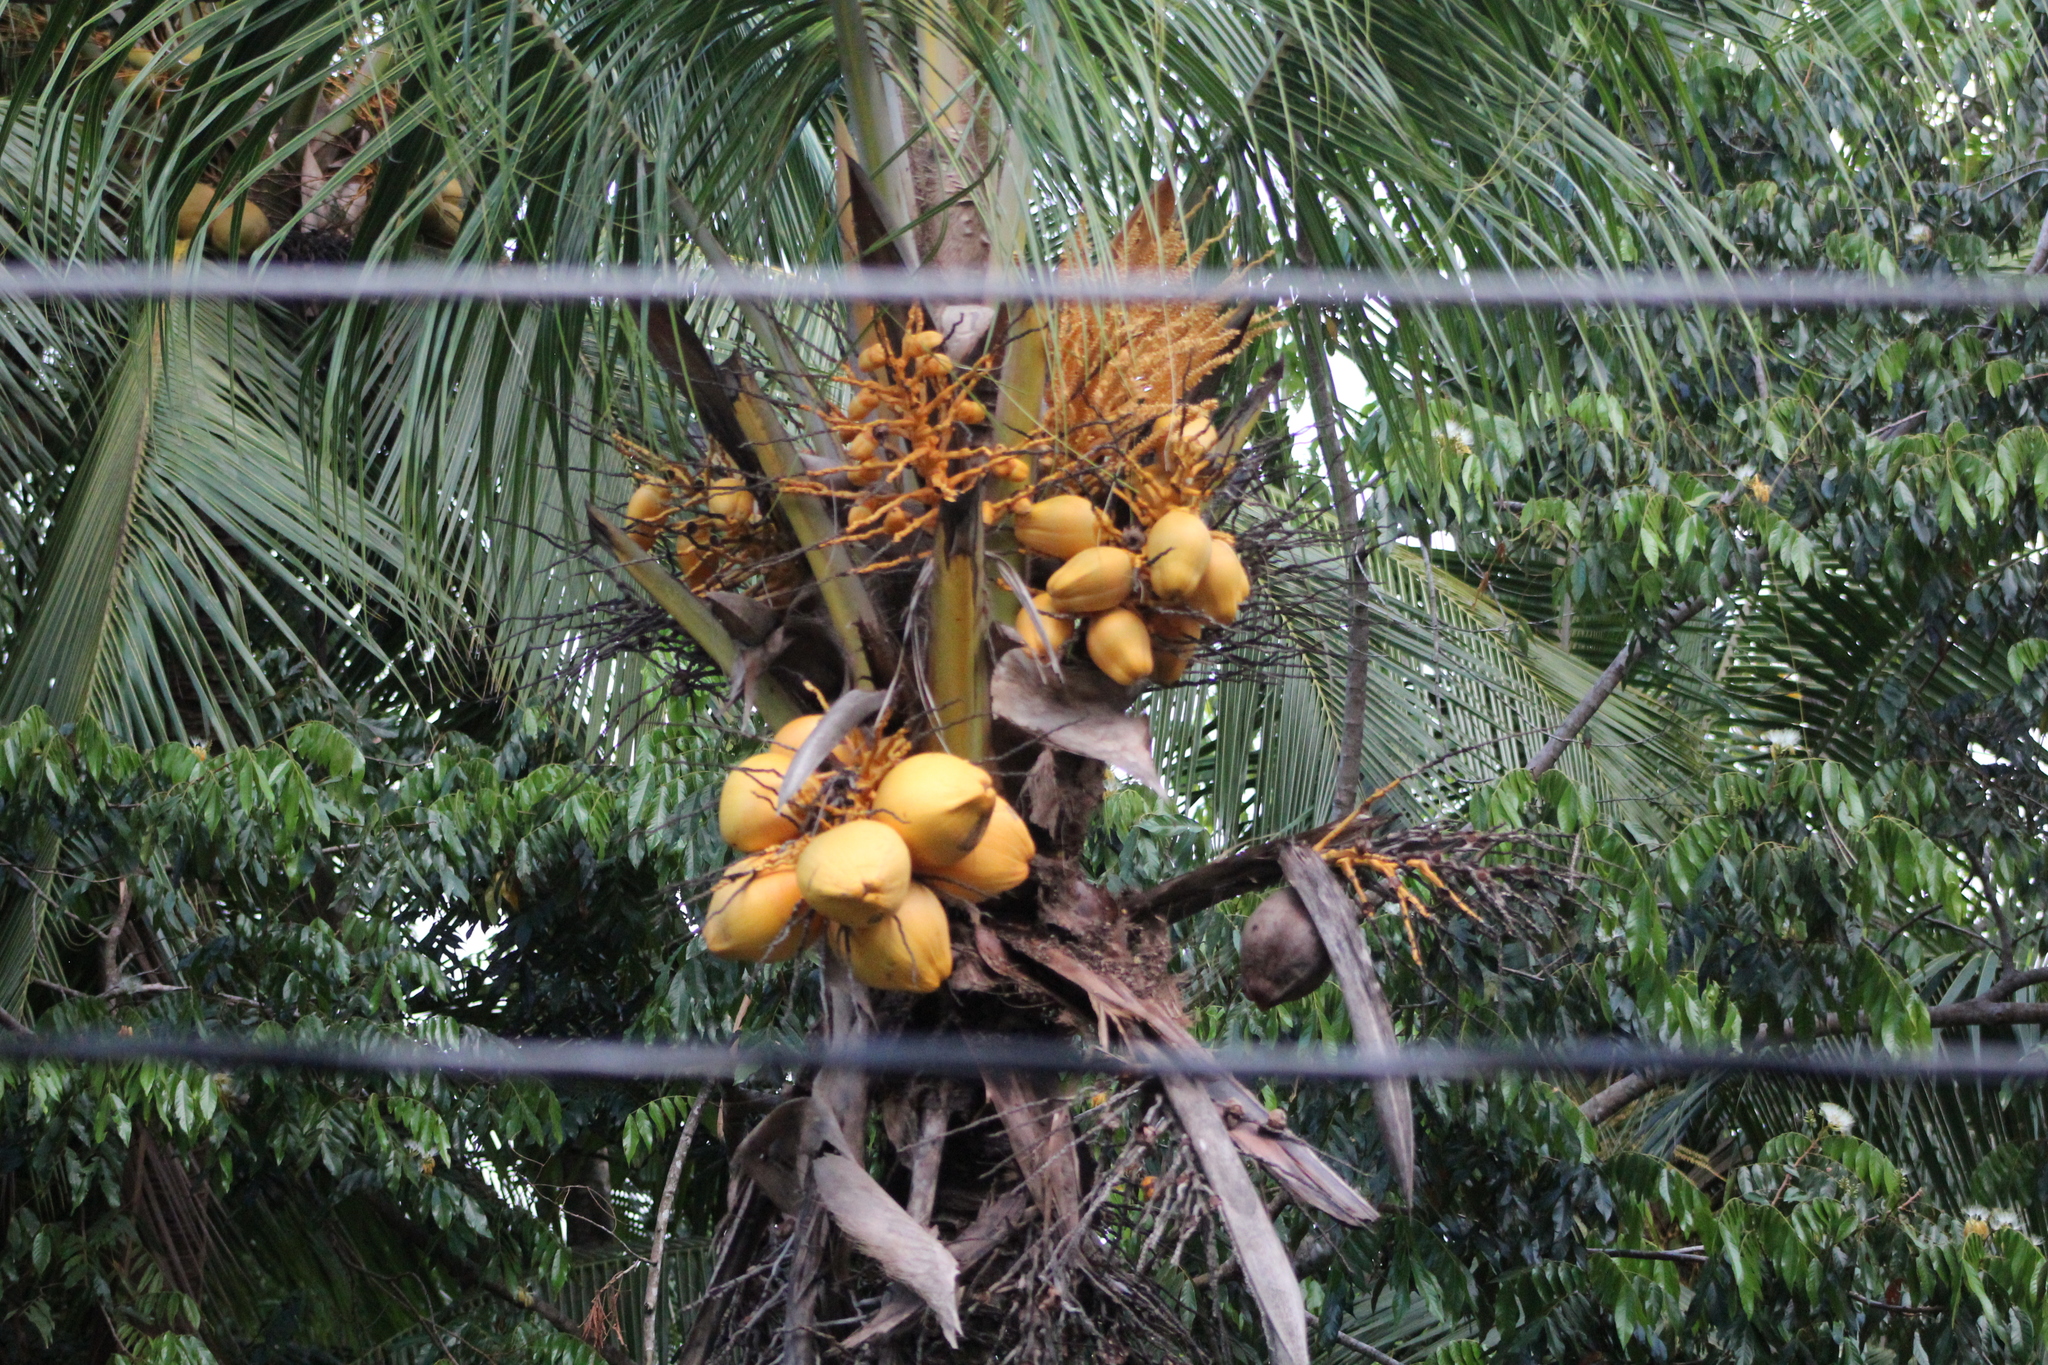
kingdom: Plantae
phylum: Tracheophyta
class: Liliopsida
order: Arecales
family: Arecaceae
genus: Cocos
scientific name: Cocos nucifera
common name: Coconut palm
